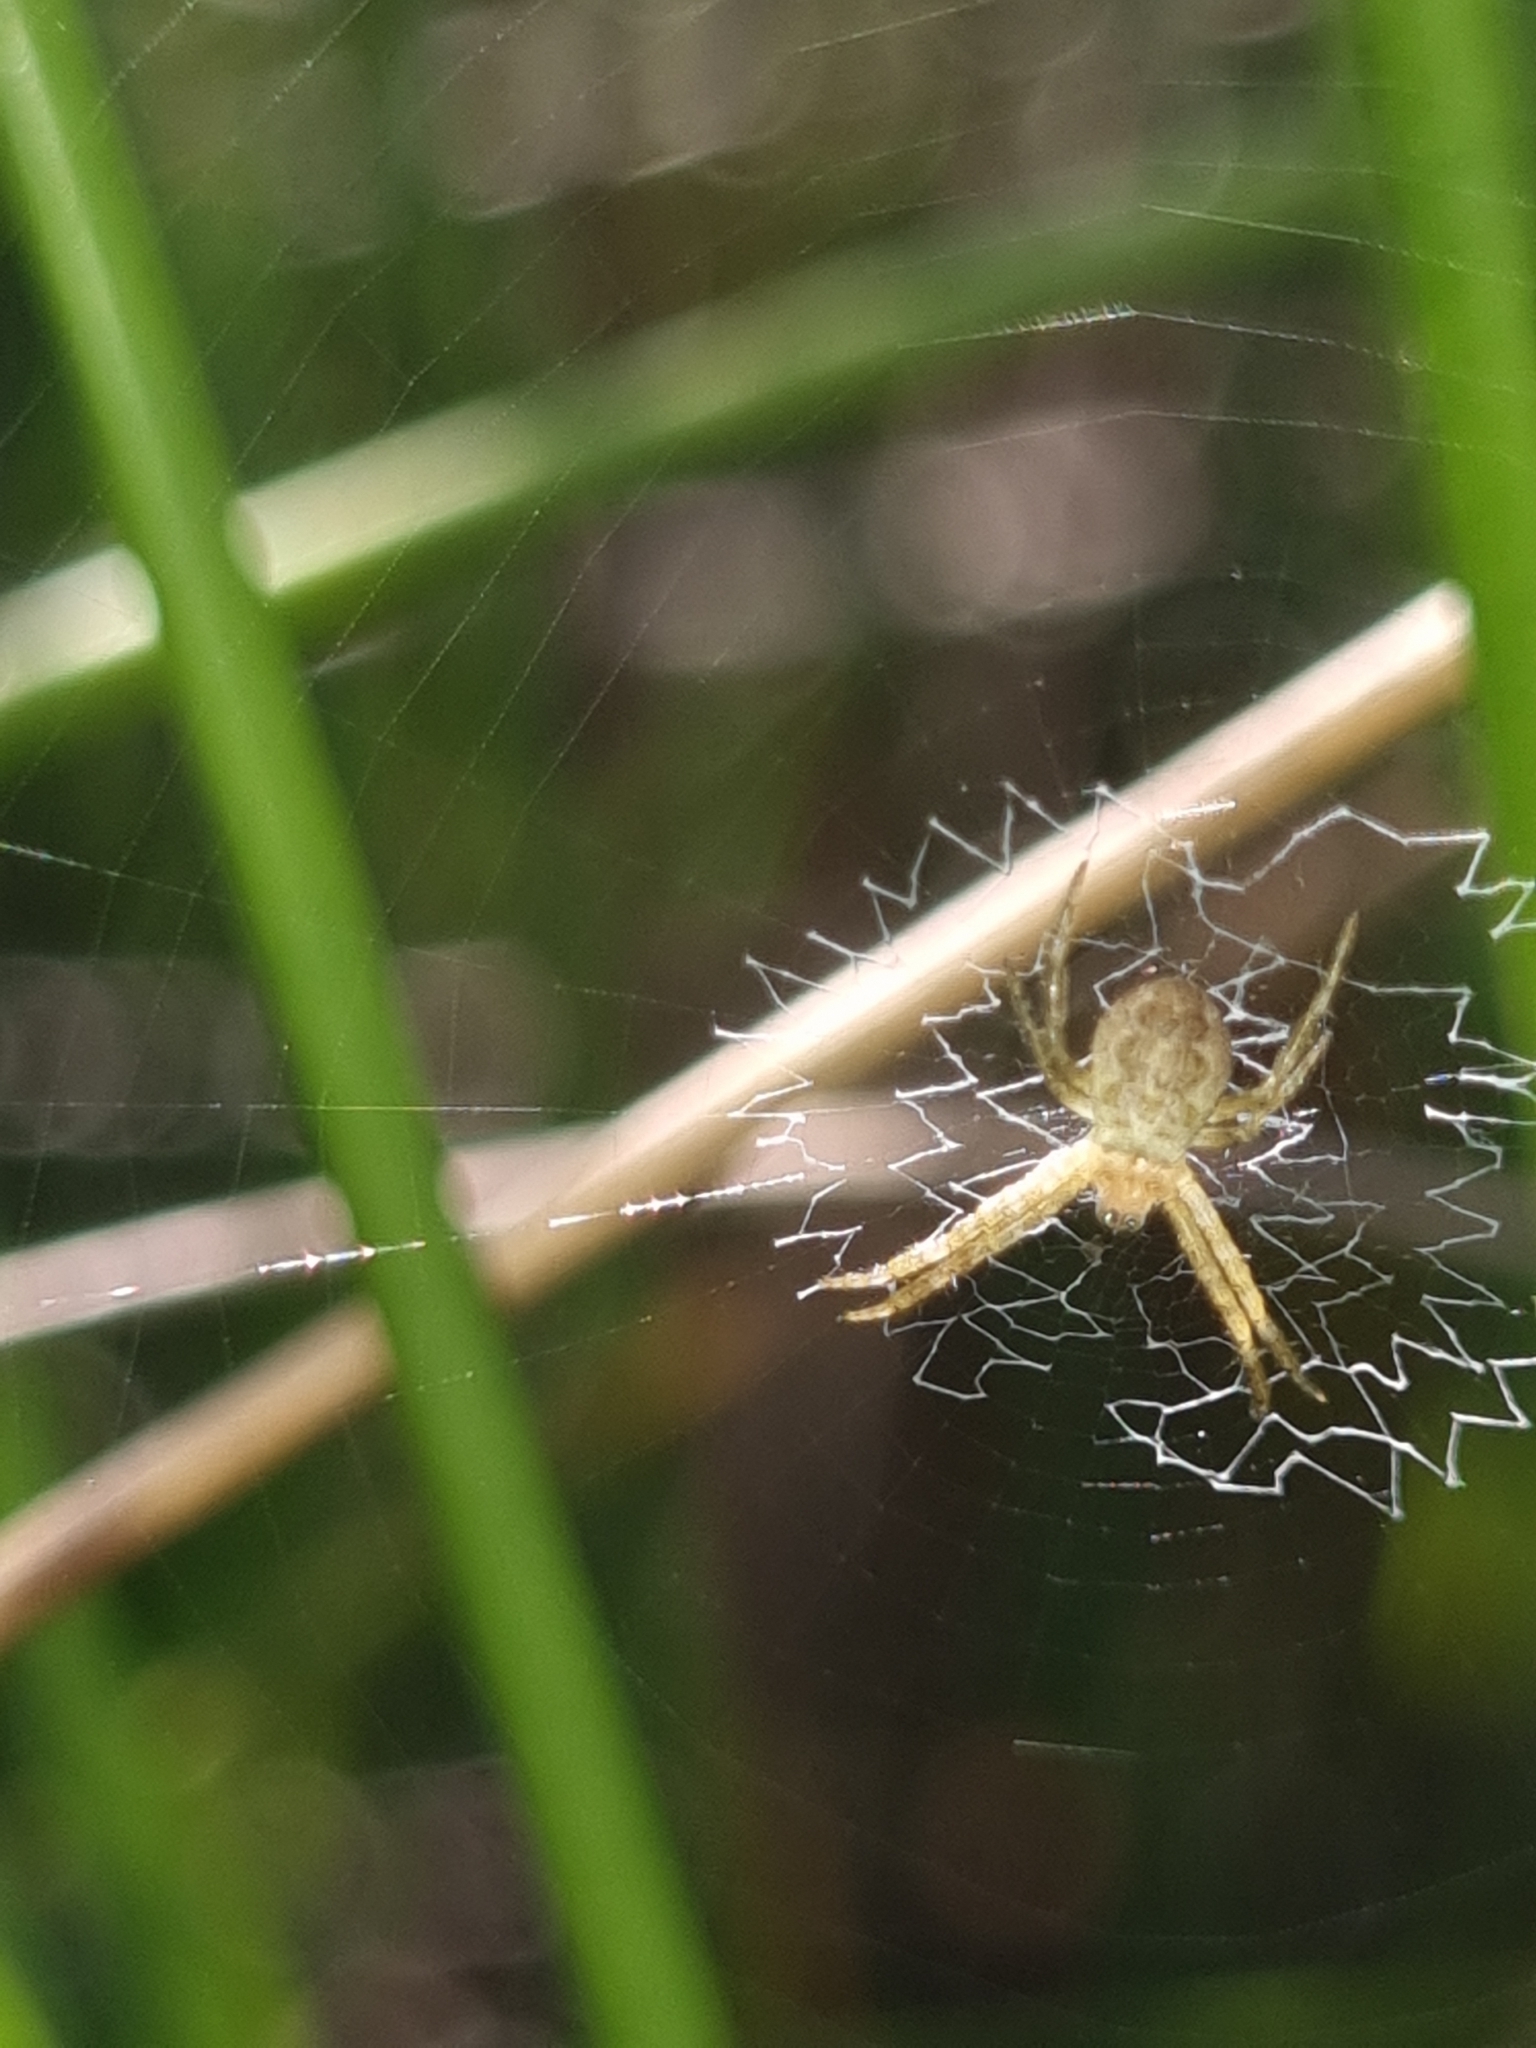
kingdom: Animalia
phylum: Arthropoda
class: Arachnida
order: Araneae
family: Araneidae
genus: Argiope
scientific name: Argiope keyserlingi
